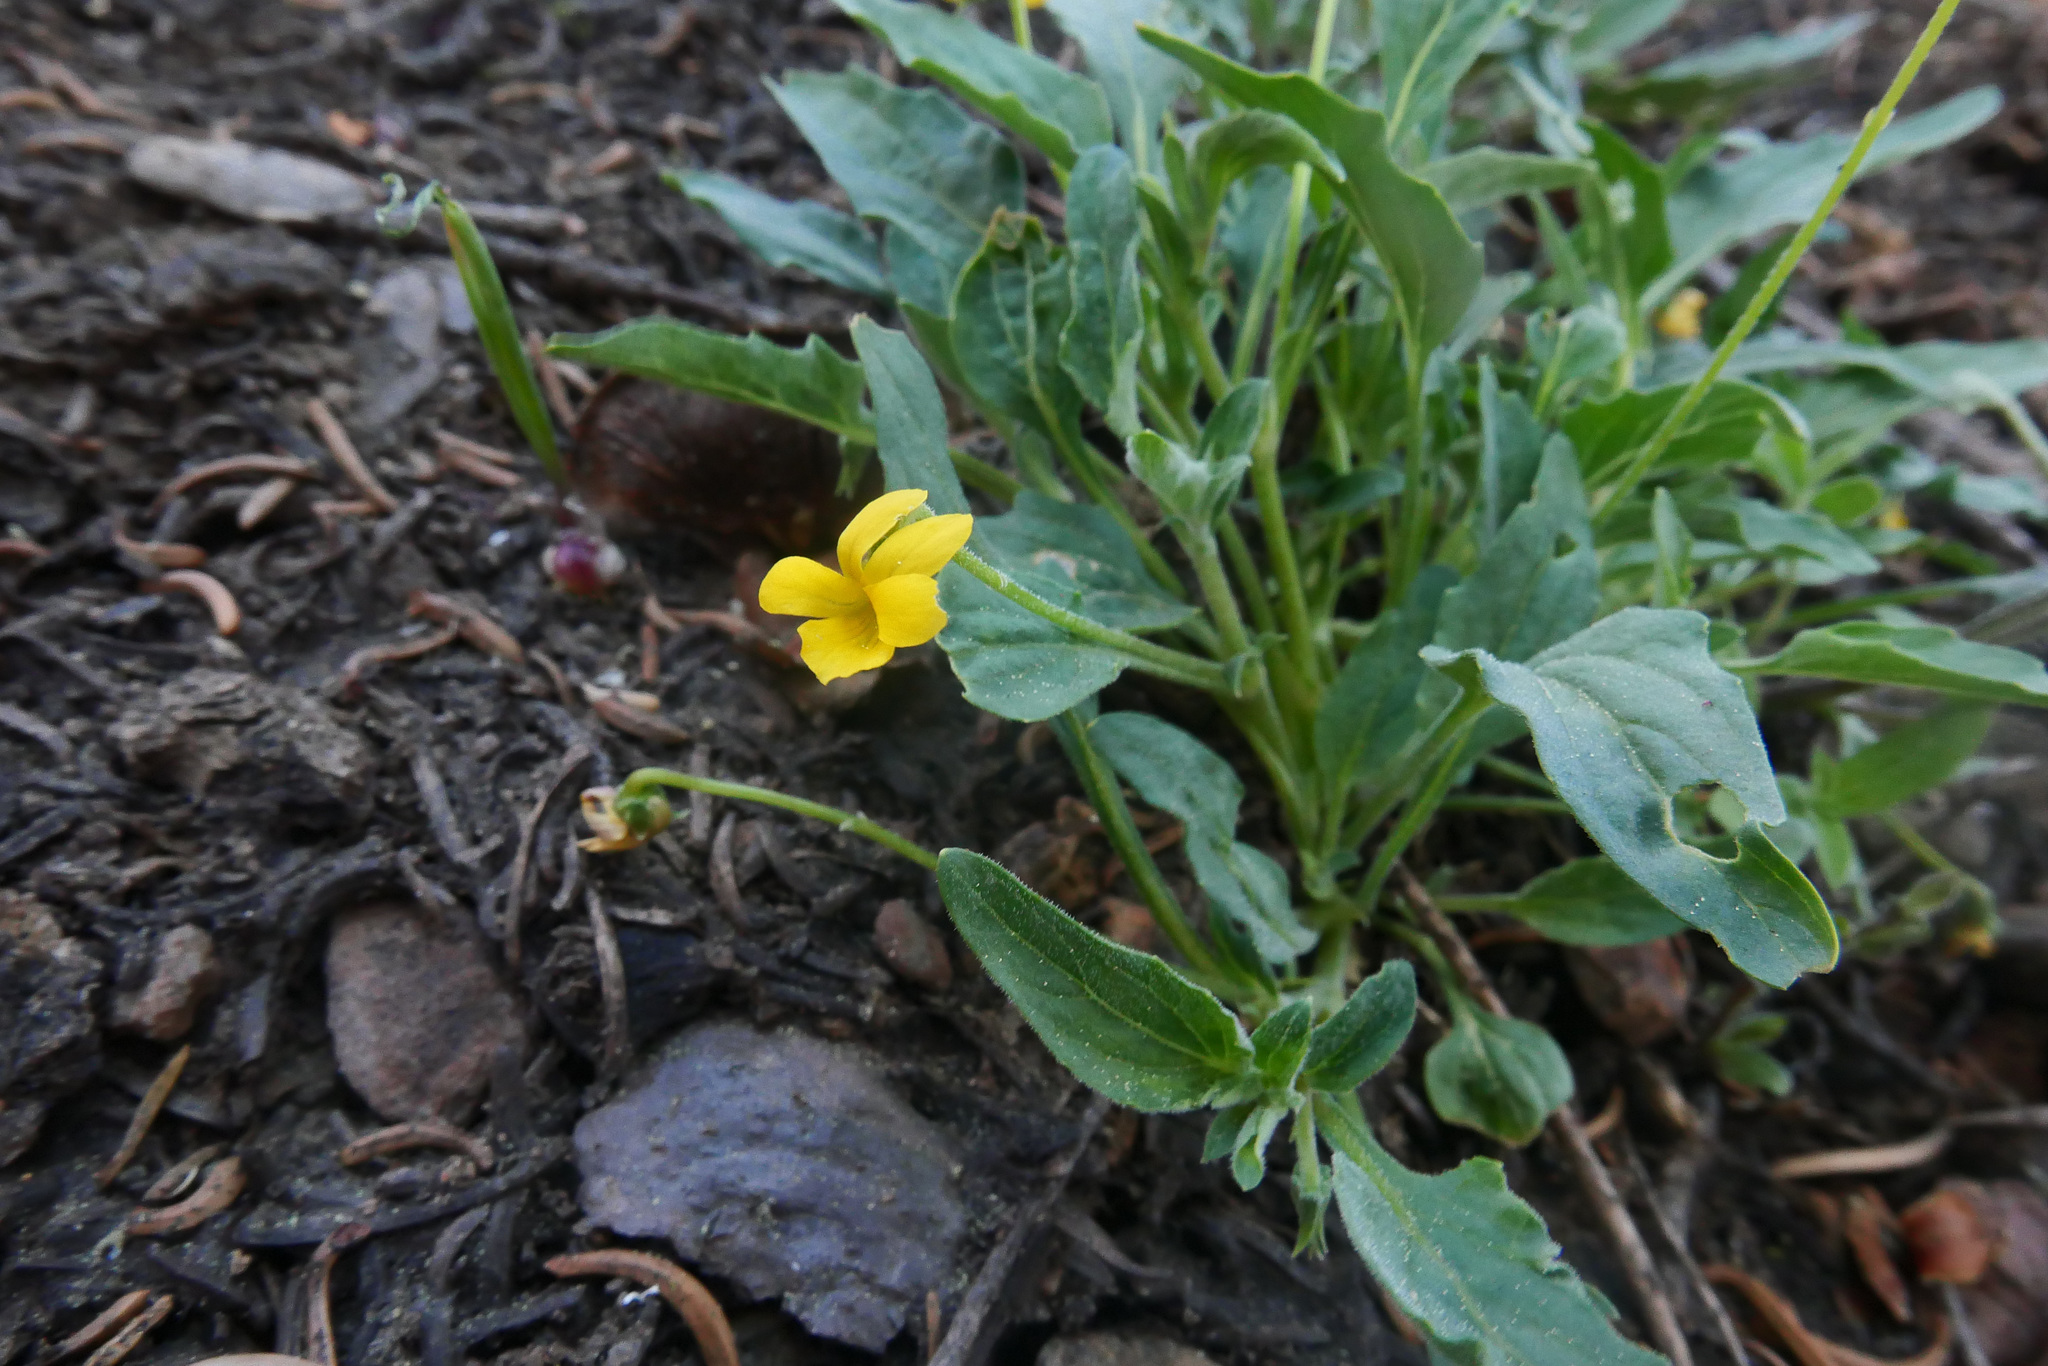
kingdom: Plantae
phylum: Tracheophyta
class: Magnoliopsida
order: Malpighiales
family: Violaceae
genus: Viola
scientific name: Viola pinetorum
